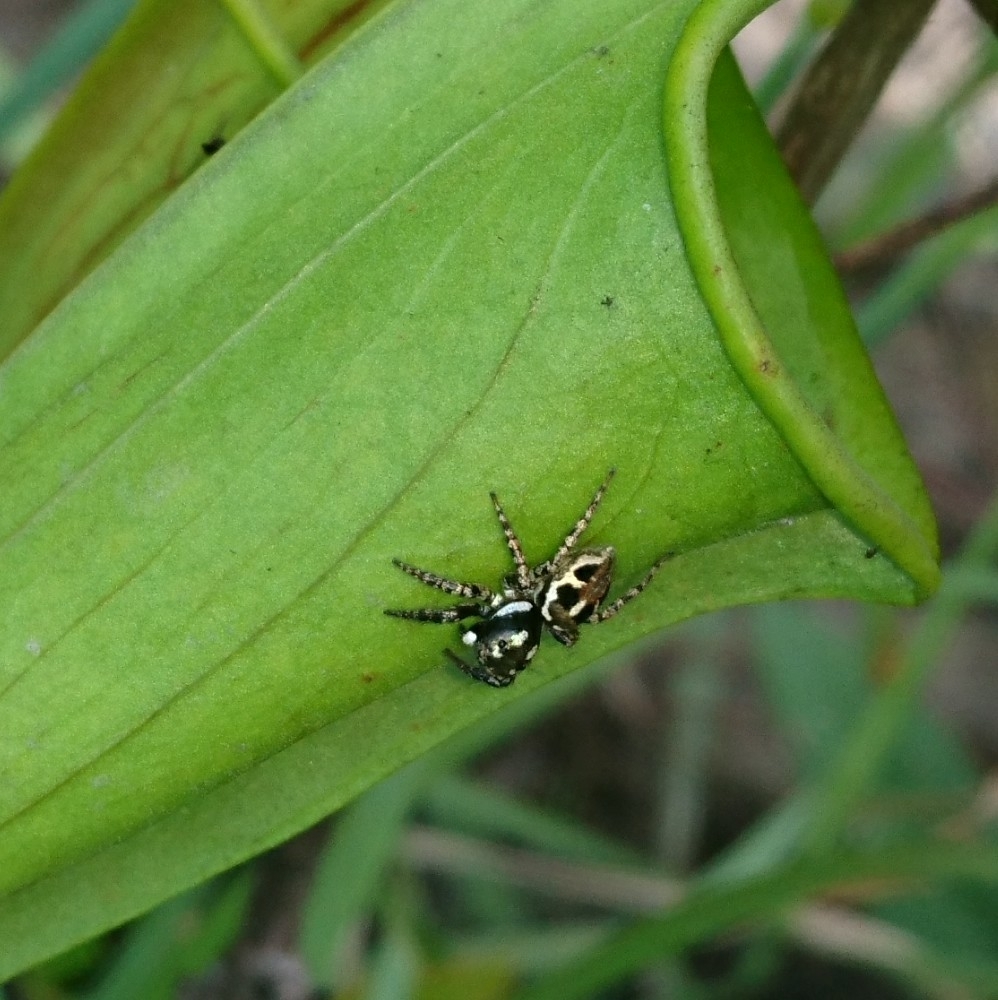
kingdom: Animalia
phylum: Arthropoda
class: Arachnida
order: Araneae
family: Salticidae
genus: Anasaitis
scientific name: Anasaitis canosa
